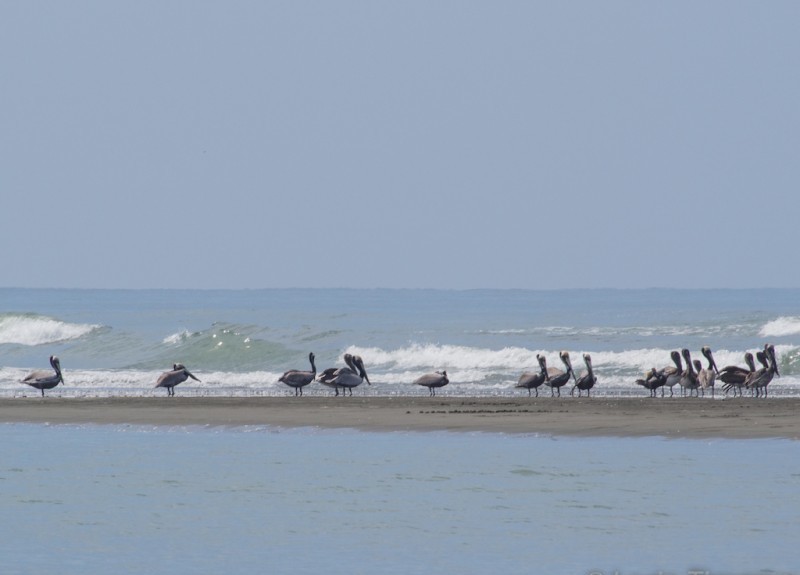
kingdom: Animalia
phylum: Chordata
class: Aves
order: Pelecaniformes
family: Pelecanidae
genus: Pelecanus
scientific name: Pelecanus occidentalis
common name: Brown pelican
